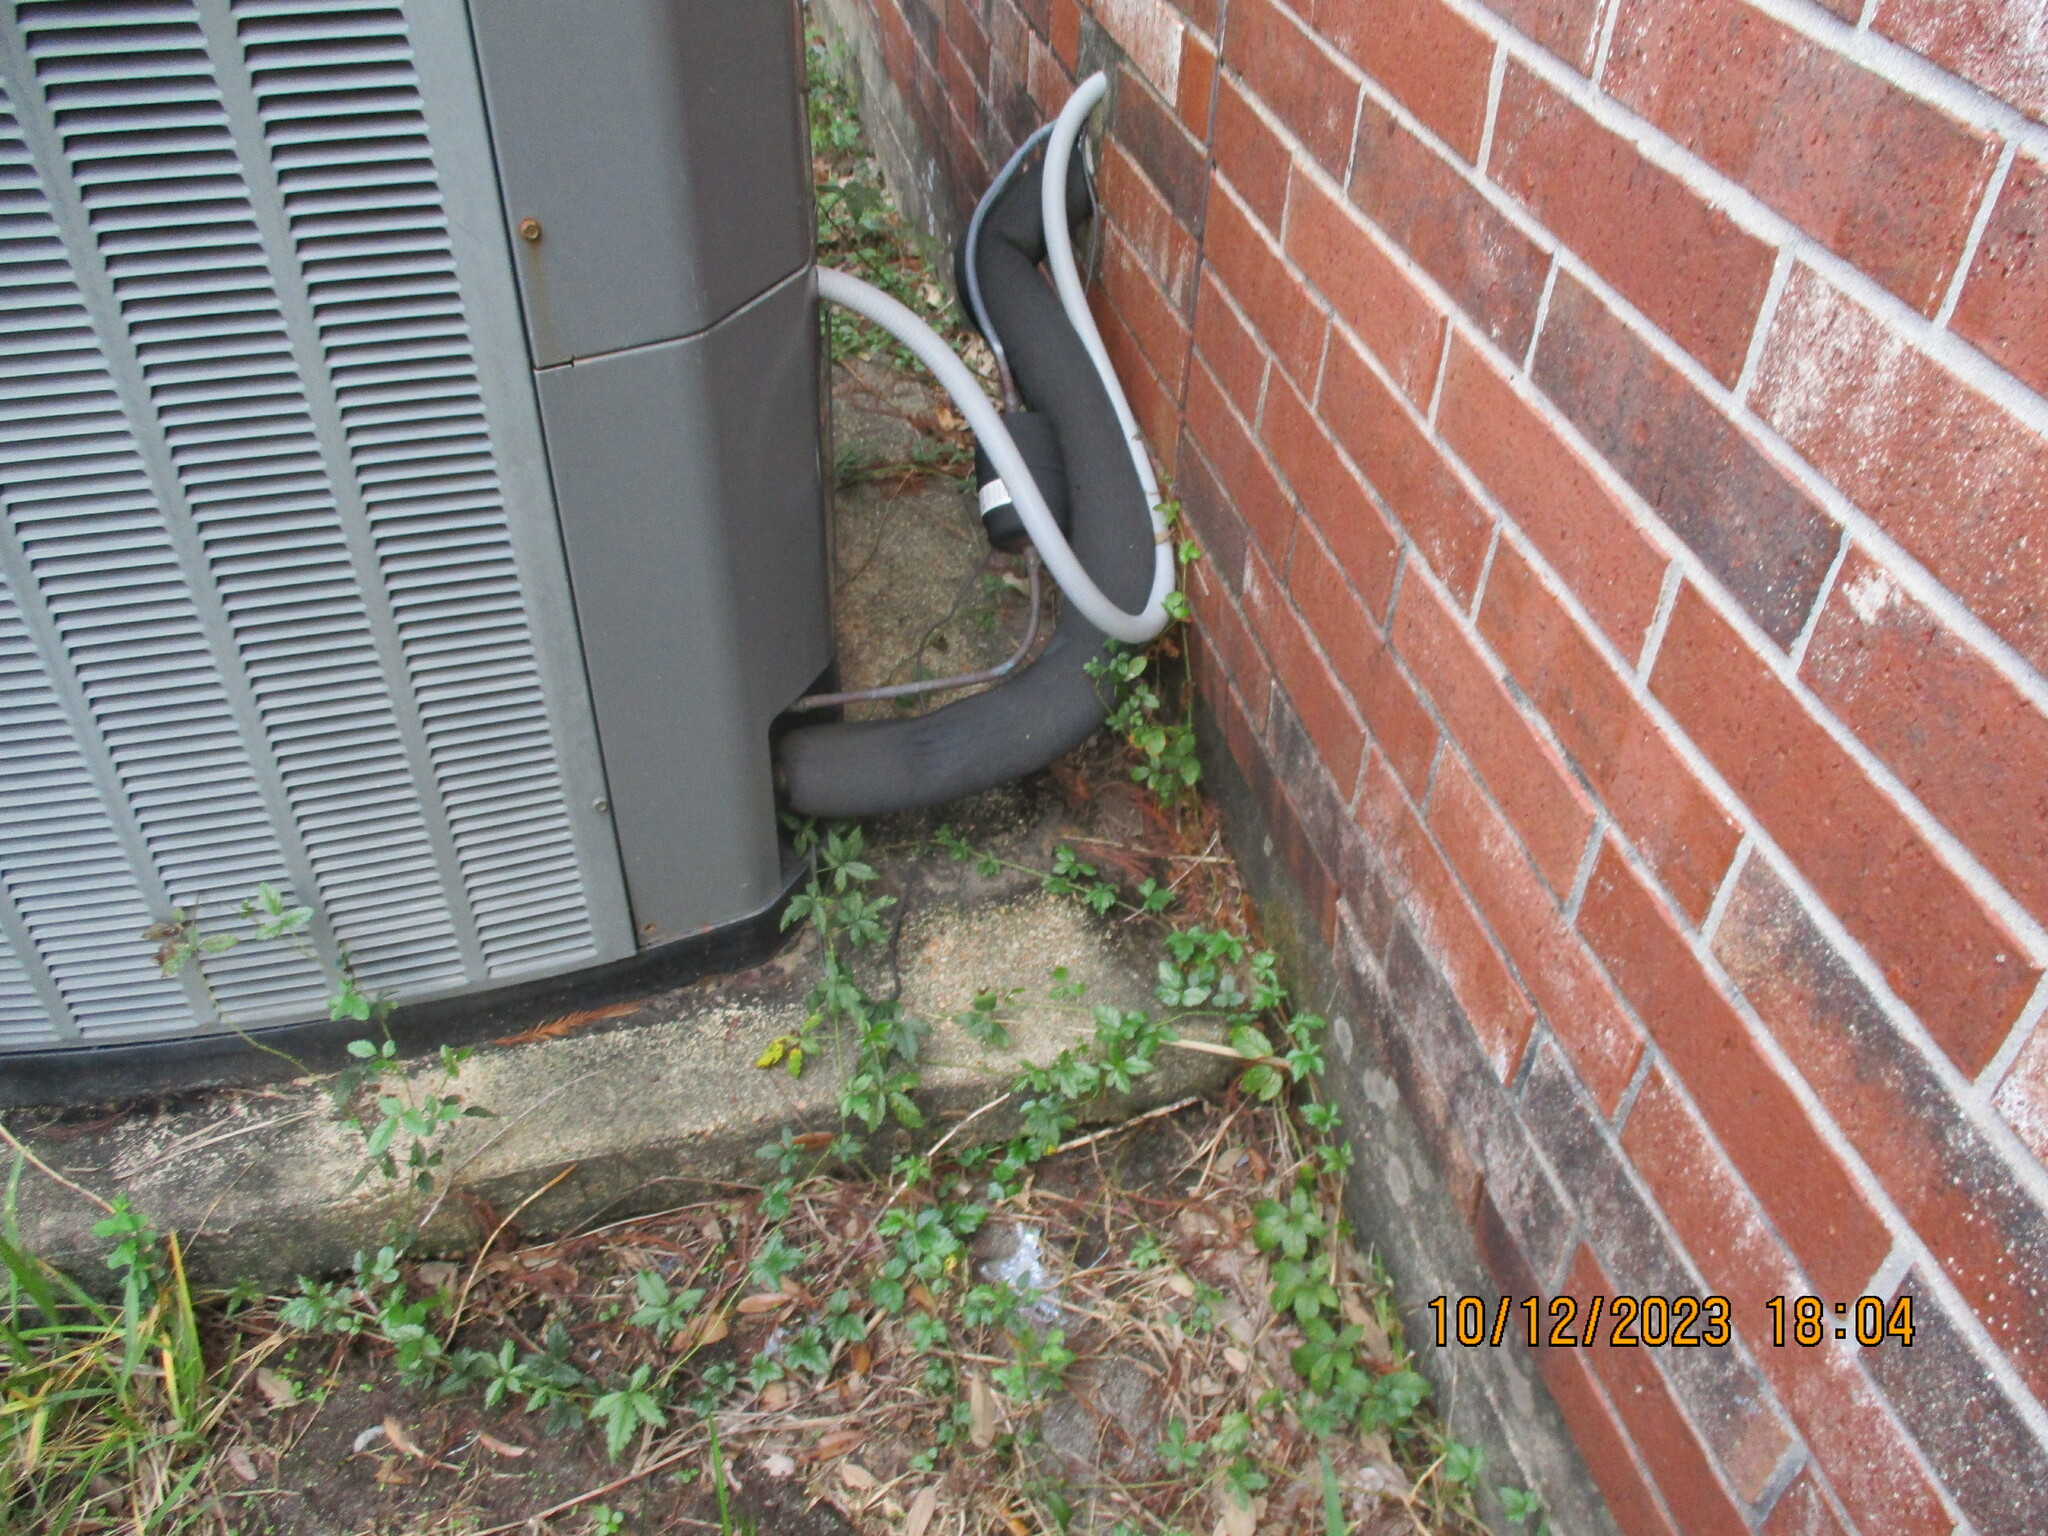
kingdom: Plantae
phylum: Tracheophyta
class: Magnoliopsida
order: Rosales
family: Rosaceae
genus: Rubus
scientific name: Rubus trivialis
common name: Southern dewberry
